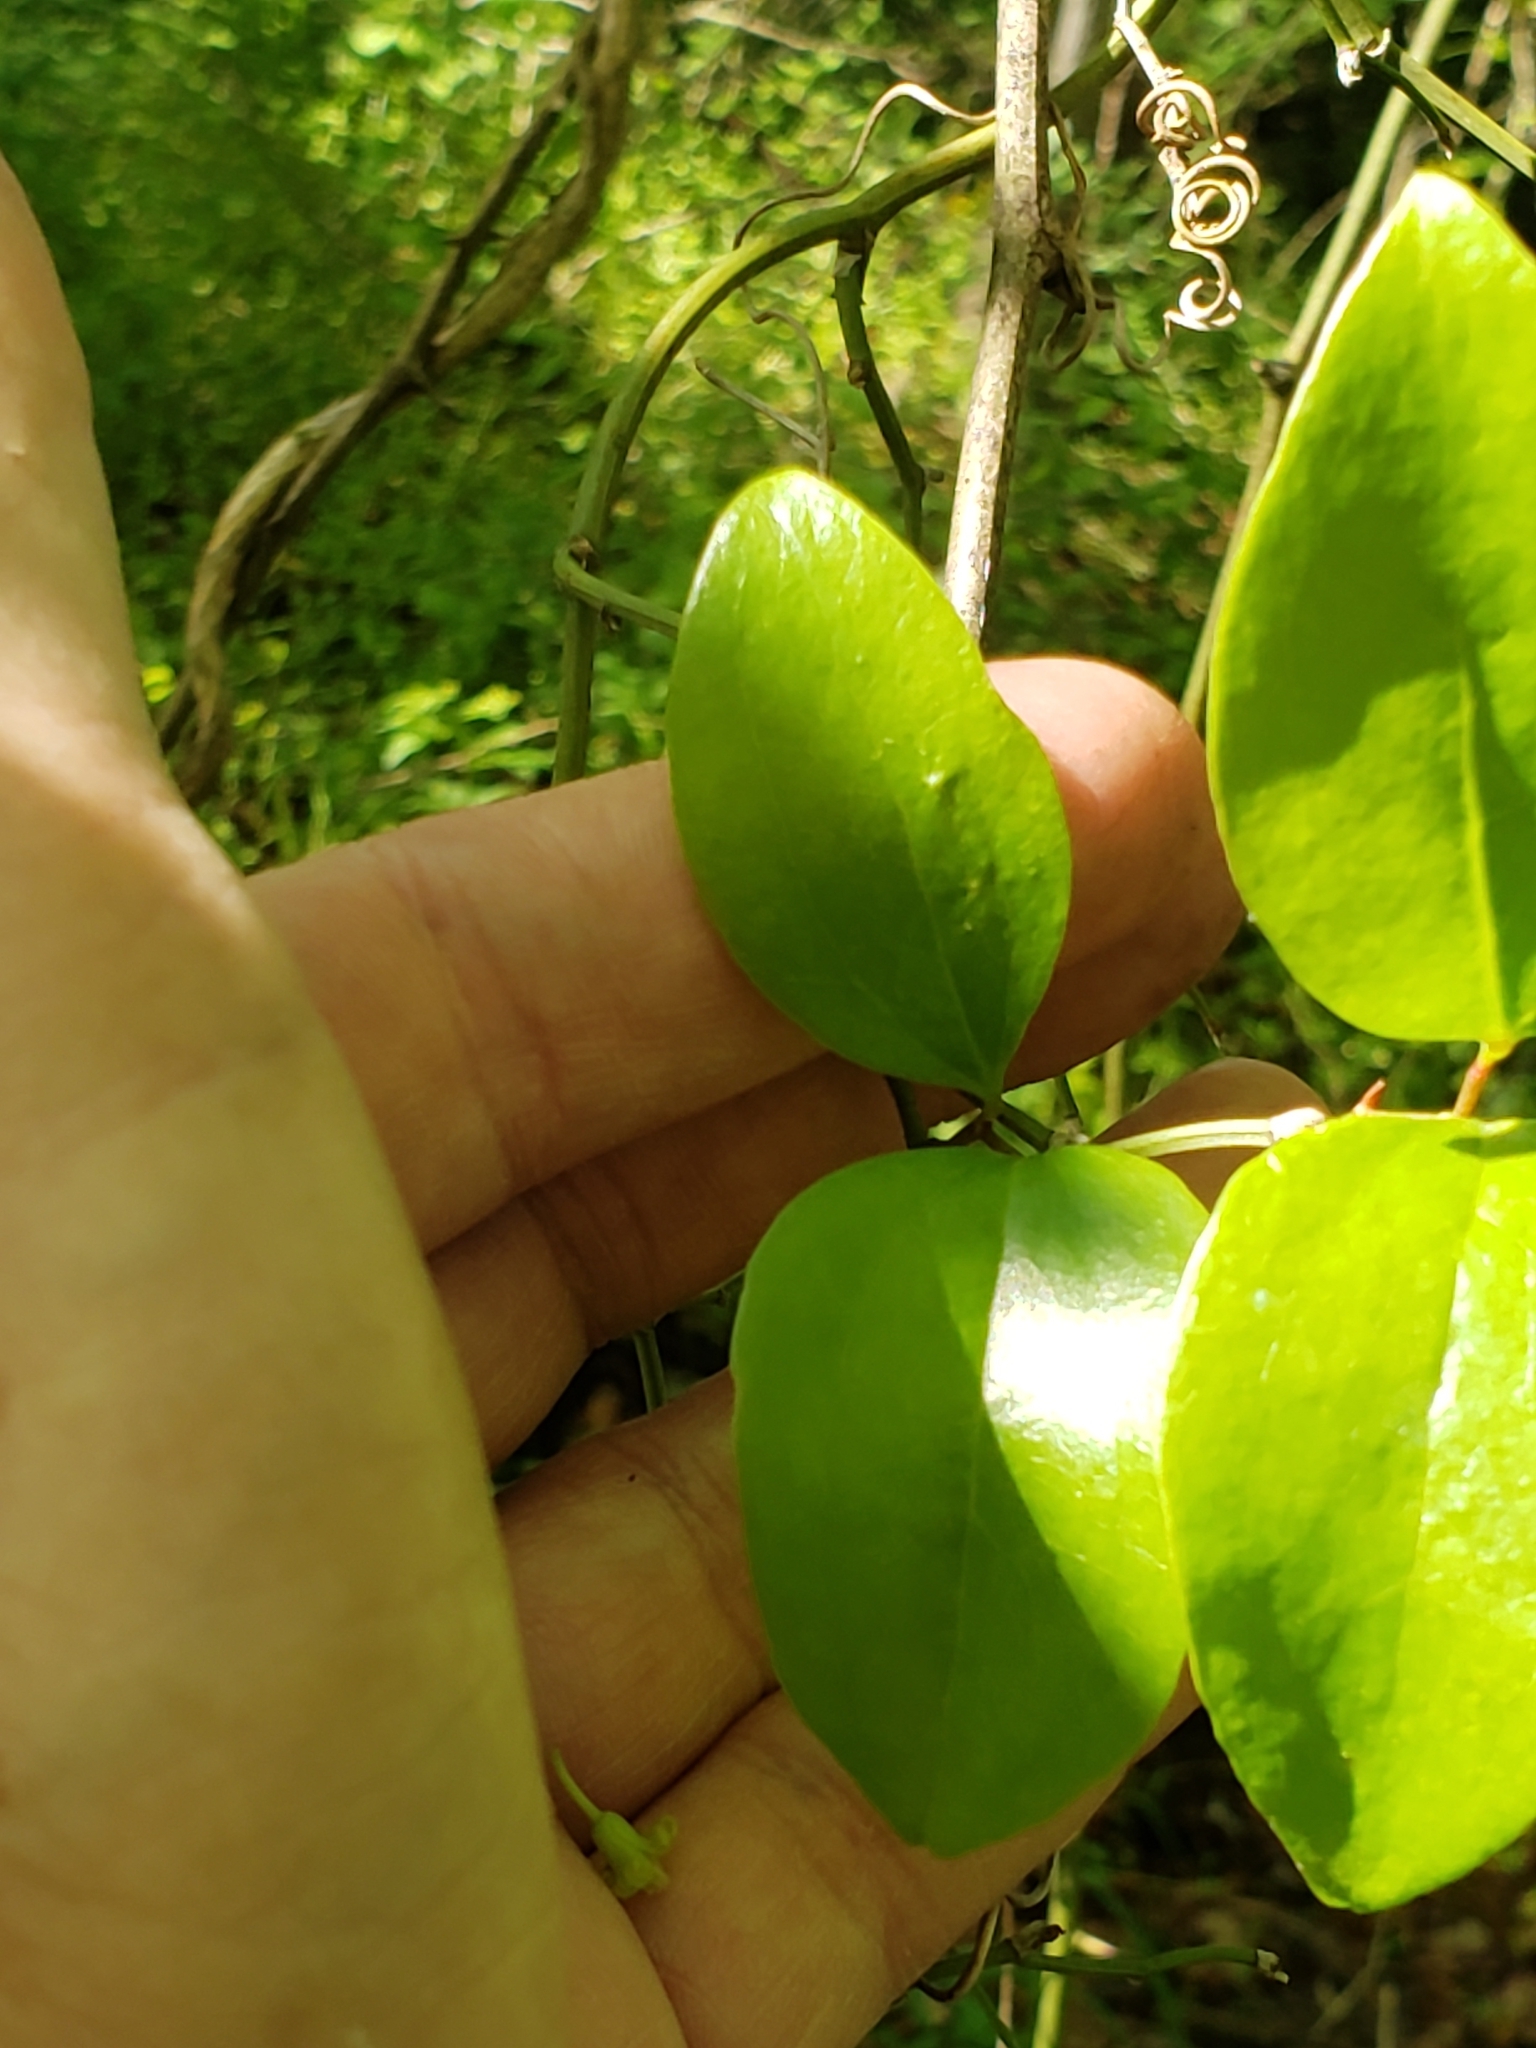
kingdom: Plantae
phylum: Tracheophyta
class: Liliopsida
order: Liliales
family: Smilacaceae
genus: Smilax
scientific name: Smilax glauca
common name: Cat greenbrier
